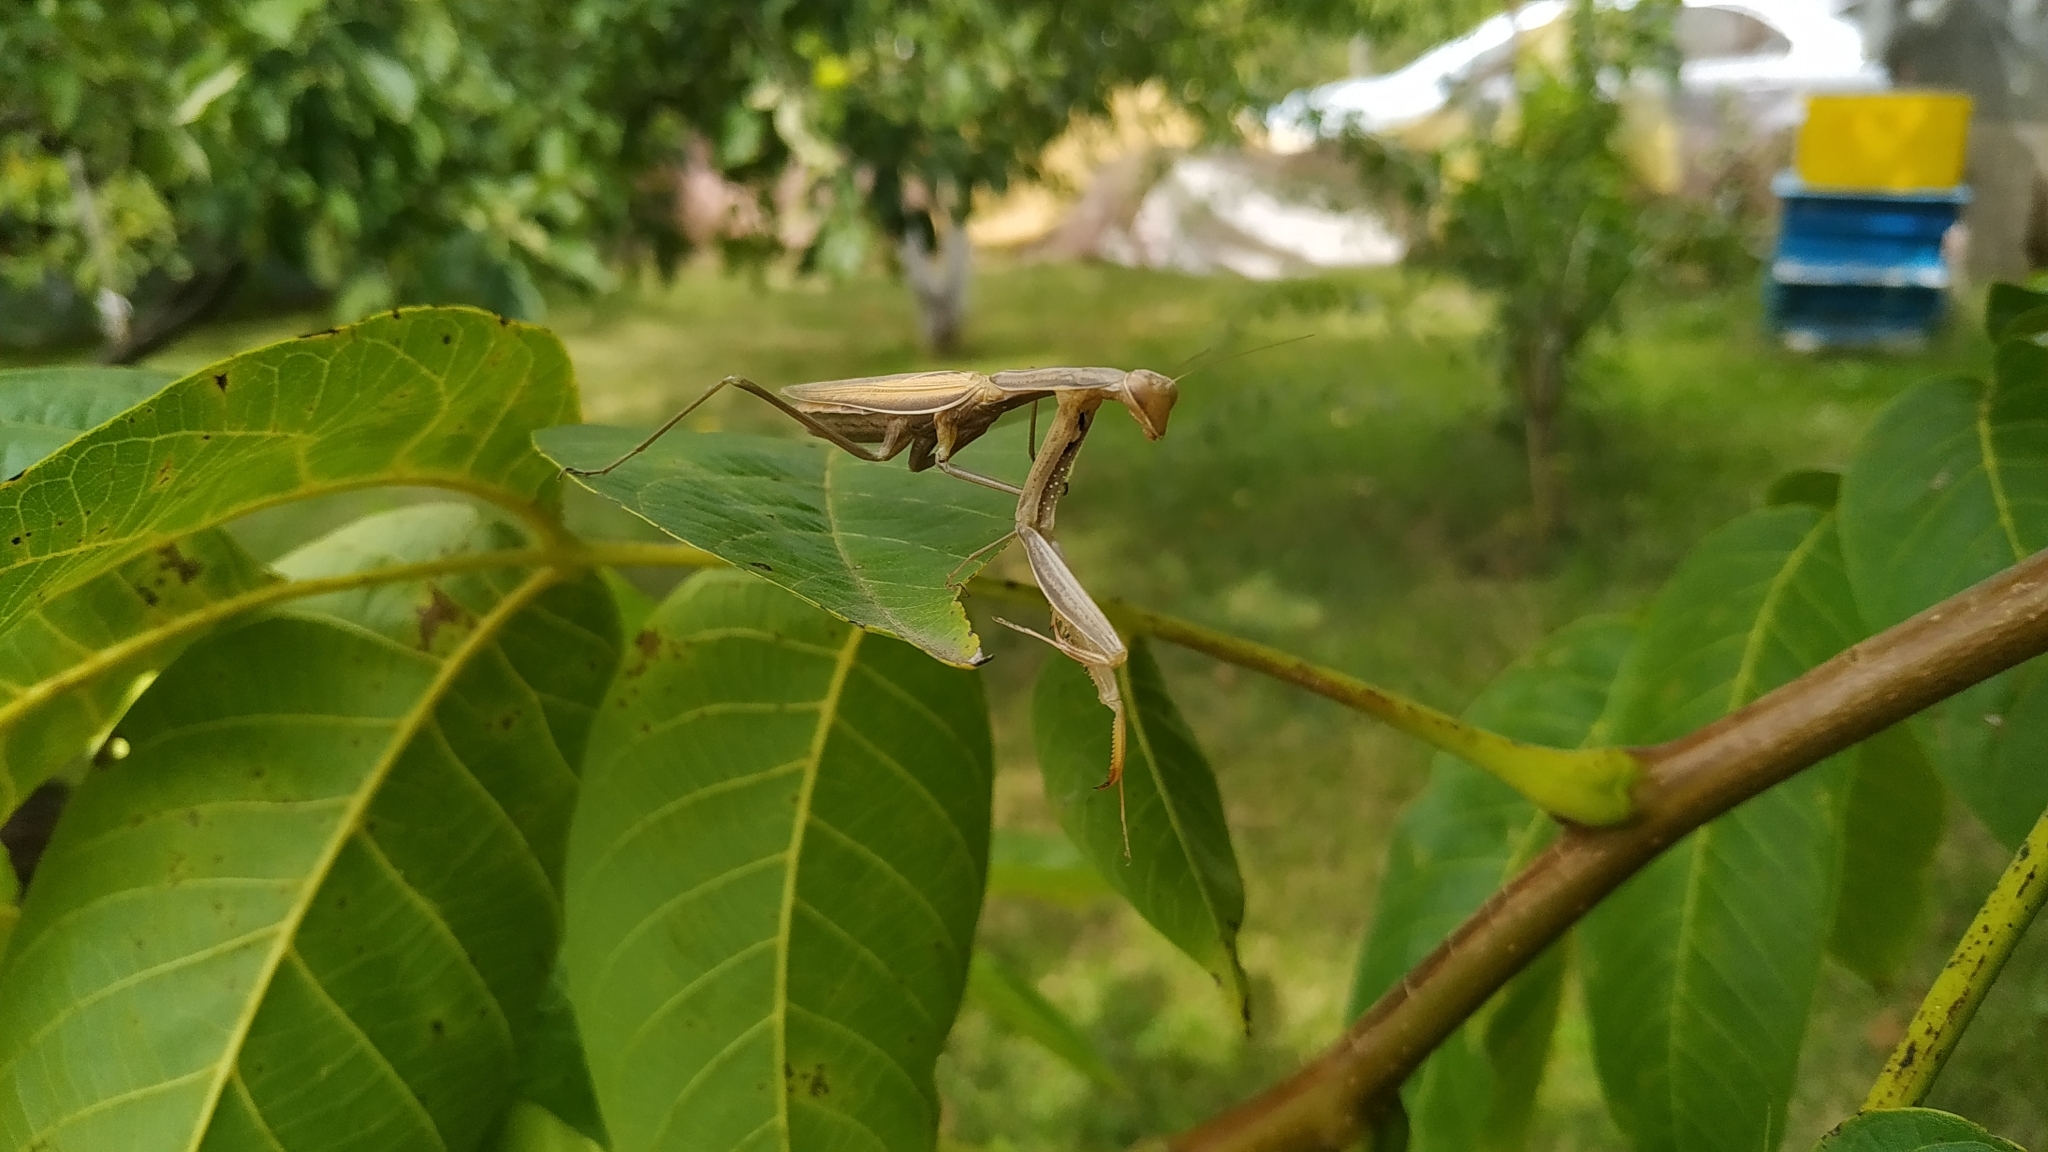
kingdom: Animalia
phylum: Arthropoda
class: Insecta
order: Mantodea
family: Mantidae
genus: Mantis
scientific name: Mantis religiosa
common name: Praying mantis
